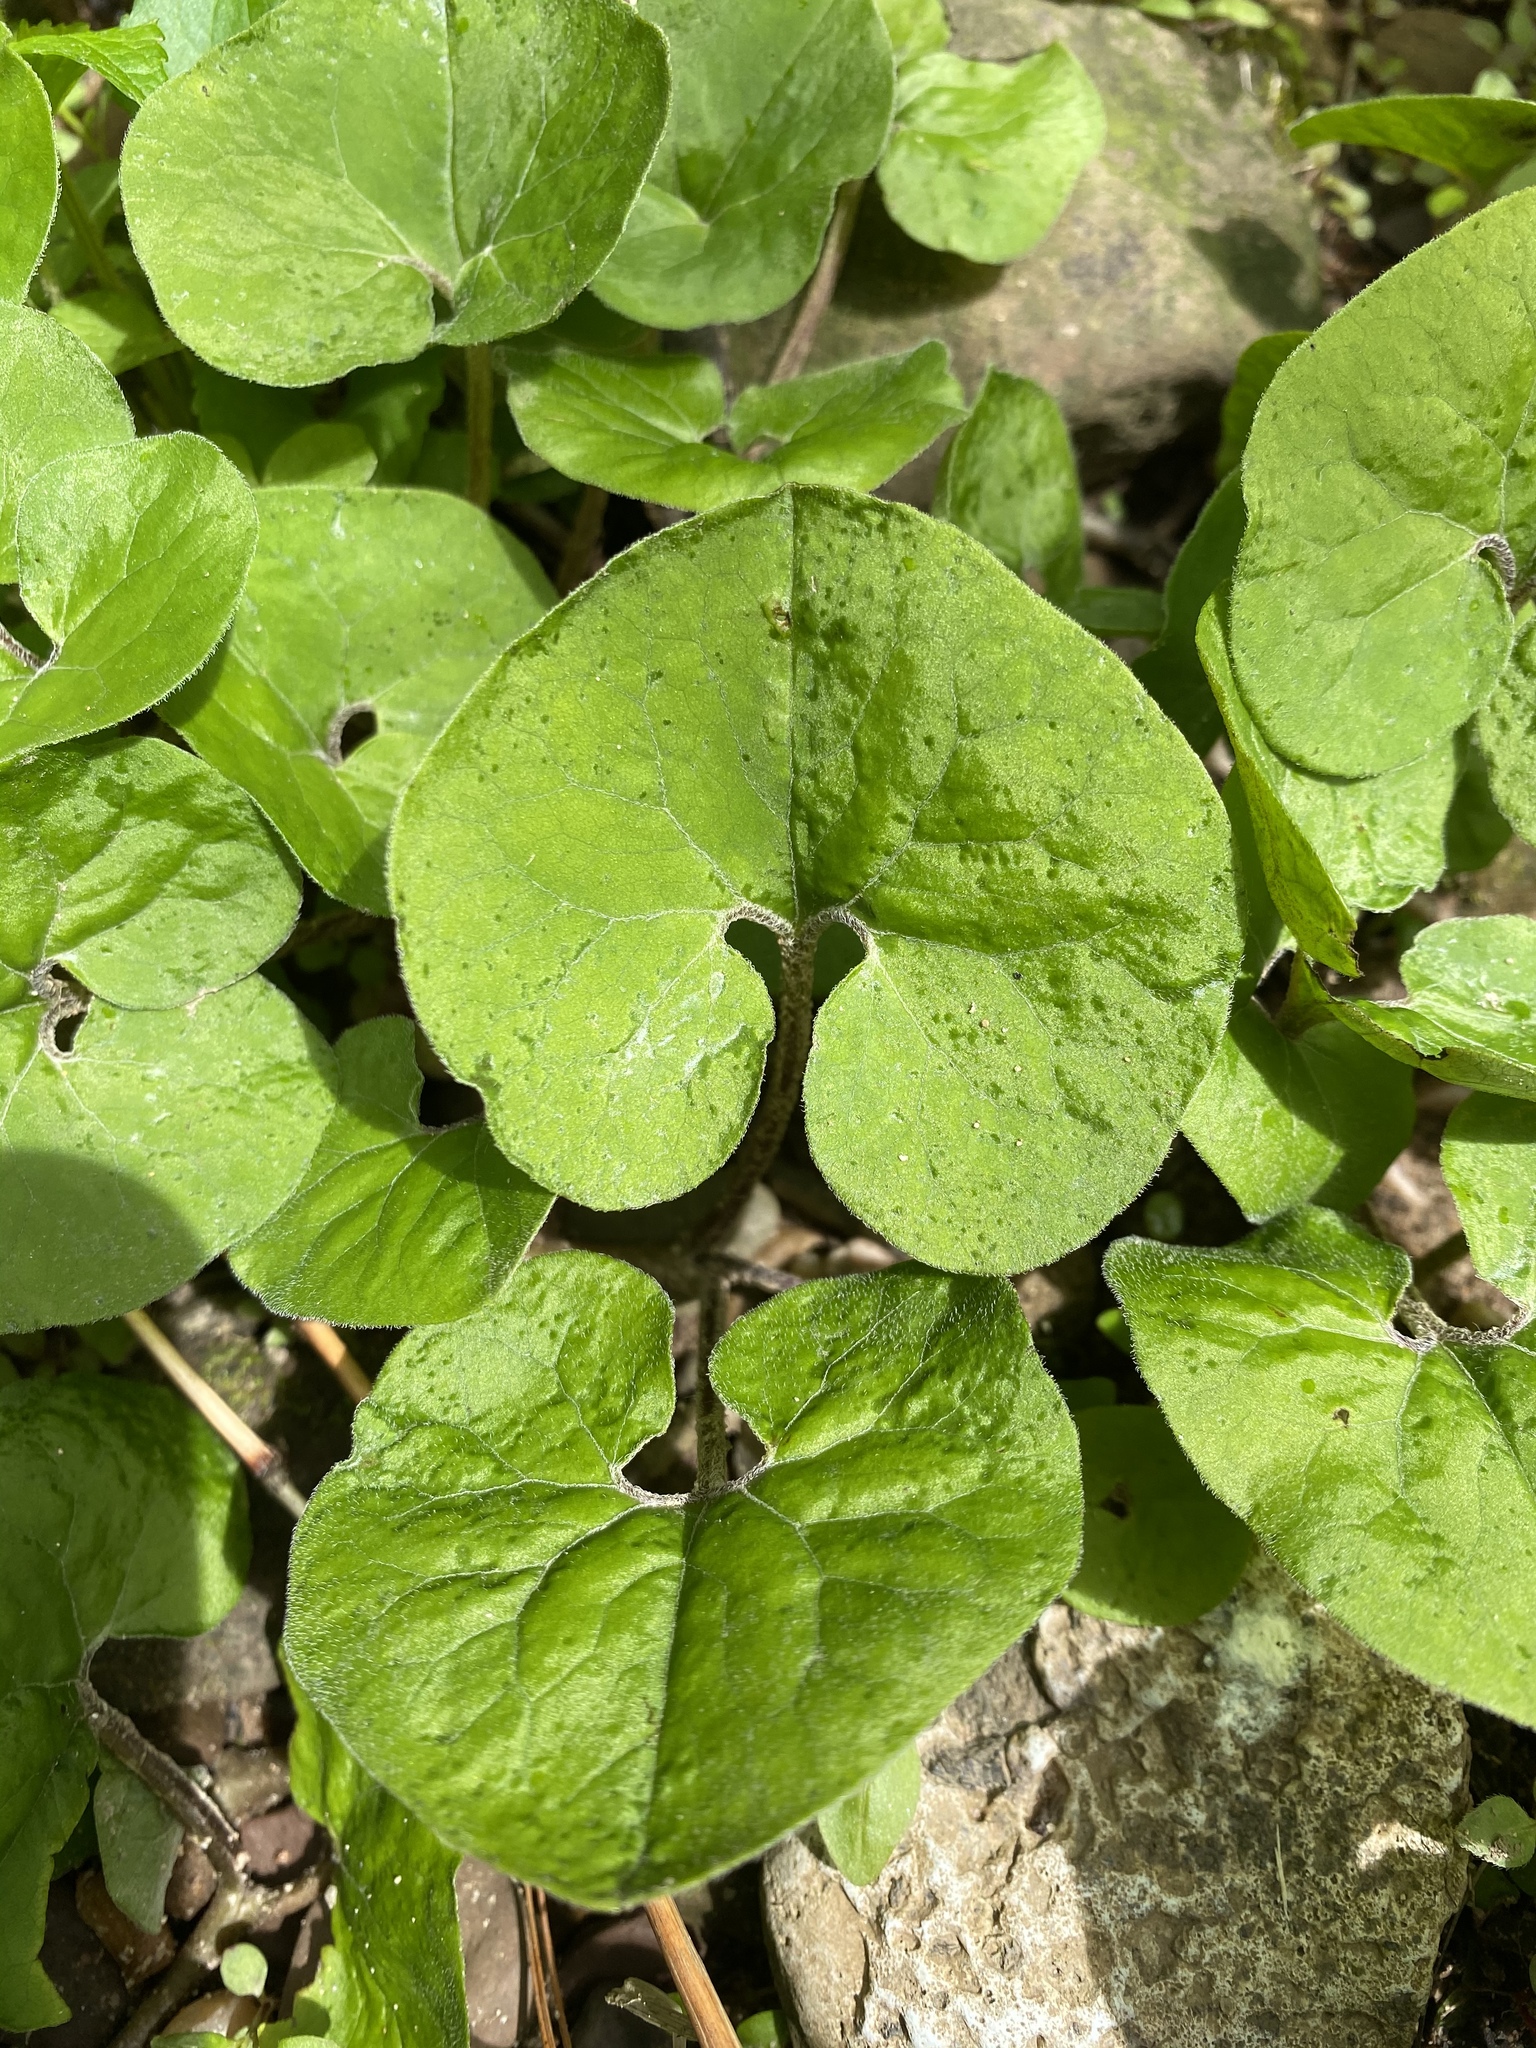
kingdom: Plantae
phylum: Tracheophyta
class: Magnoliopsida
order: Piperales
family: Aristolochiaceae
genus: Asarum
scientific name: Asarum canadense
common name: Wild ginger
